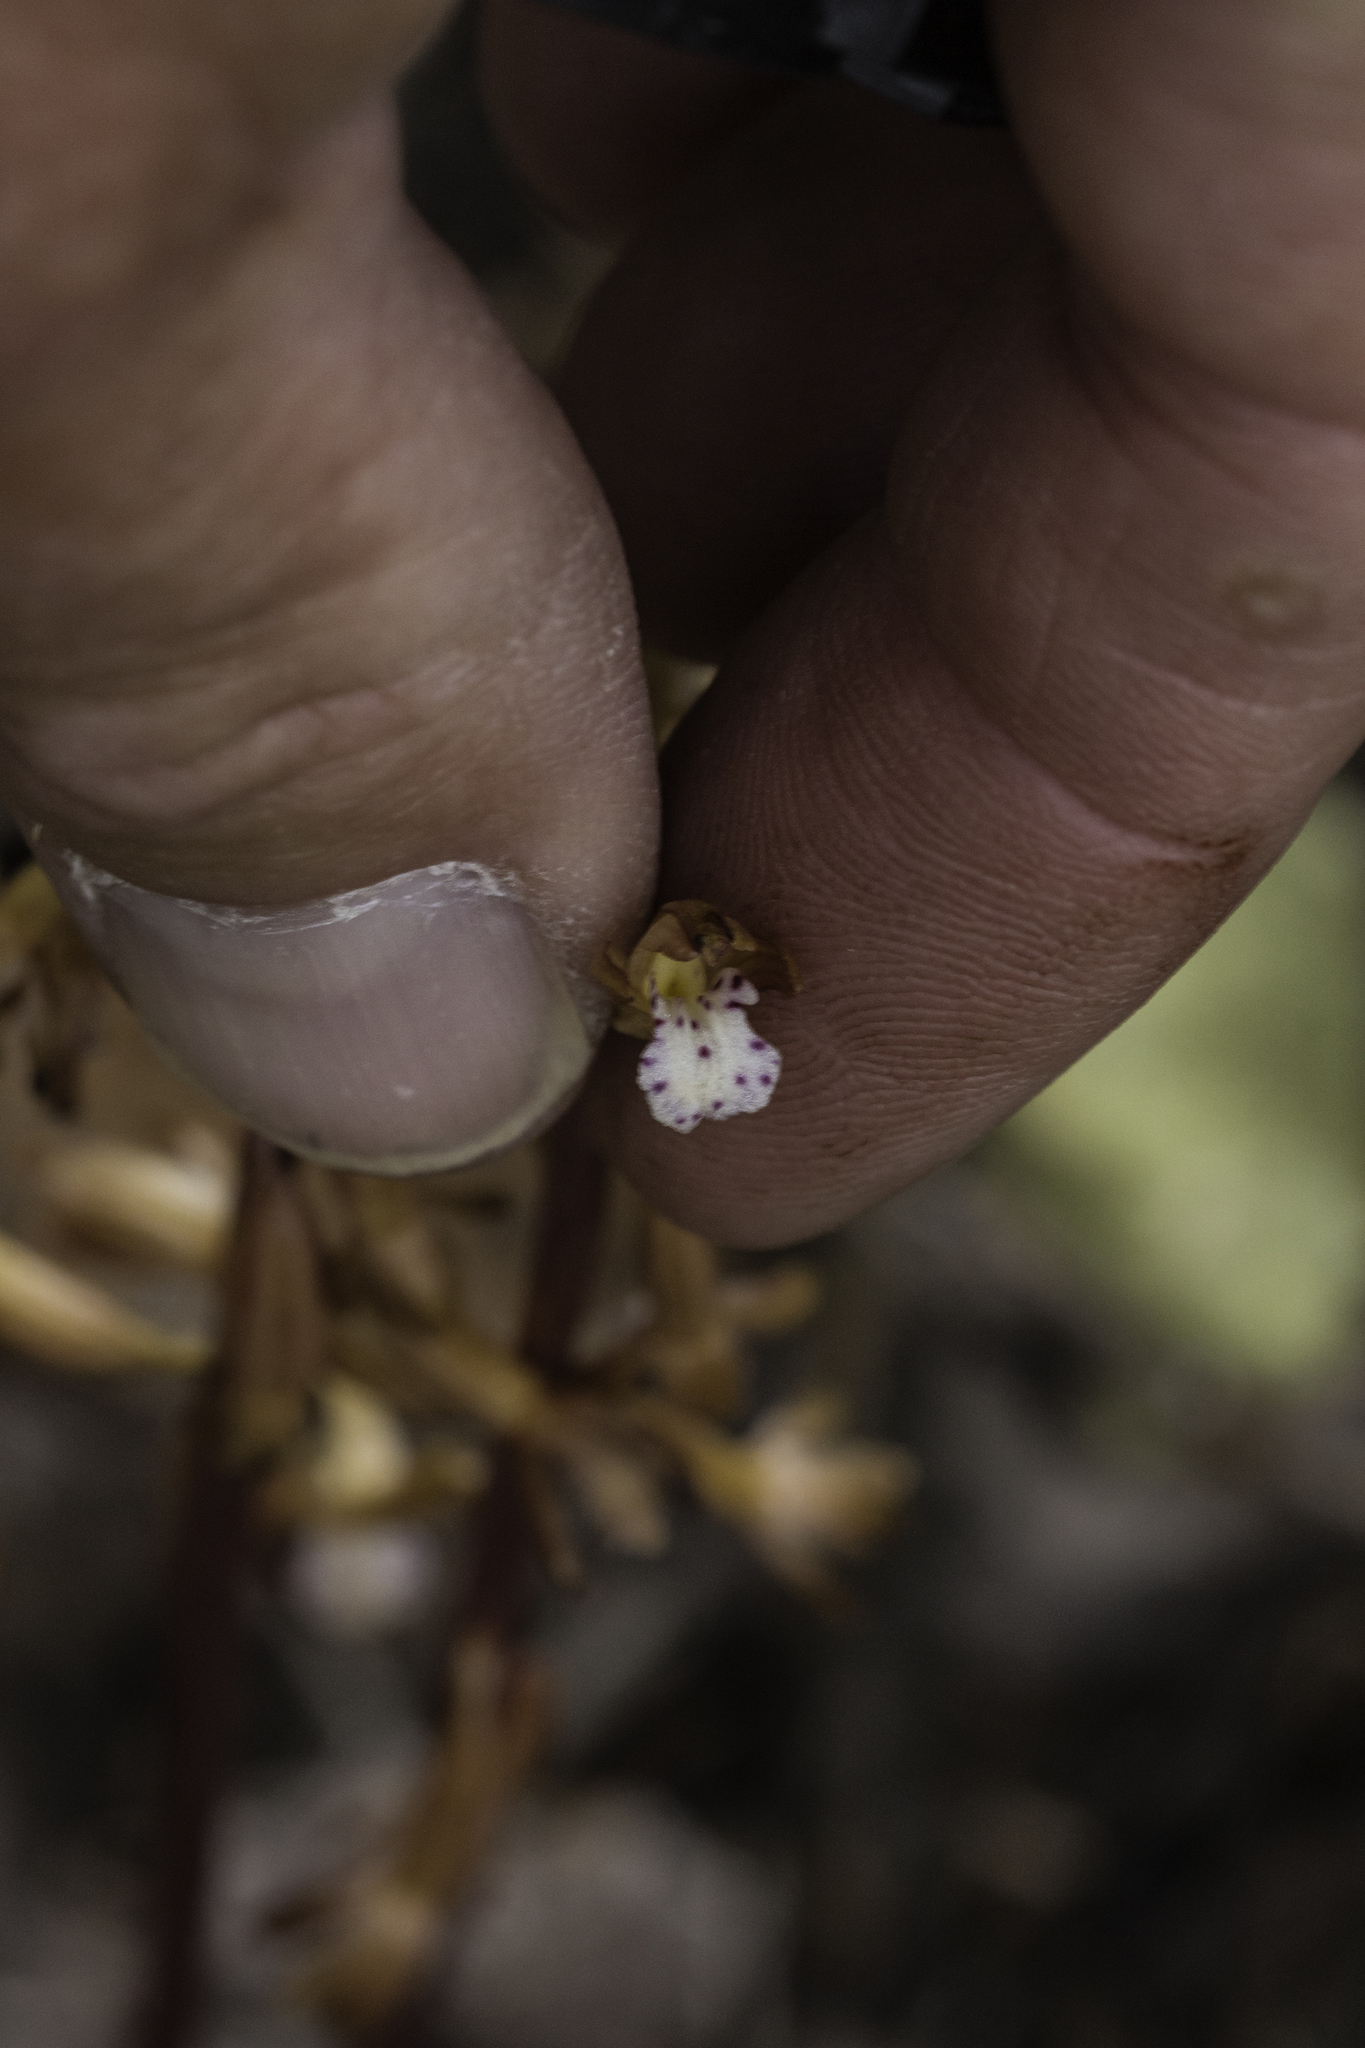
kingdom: Plantae
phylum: Tracheophyta
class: Liliopsida
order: Asparagales
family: Orchidaceae
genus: Corallorhiza
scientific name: Corallorhiza maculata
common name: Spotted coralroot
